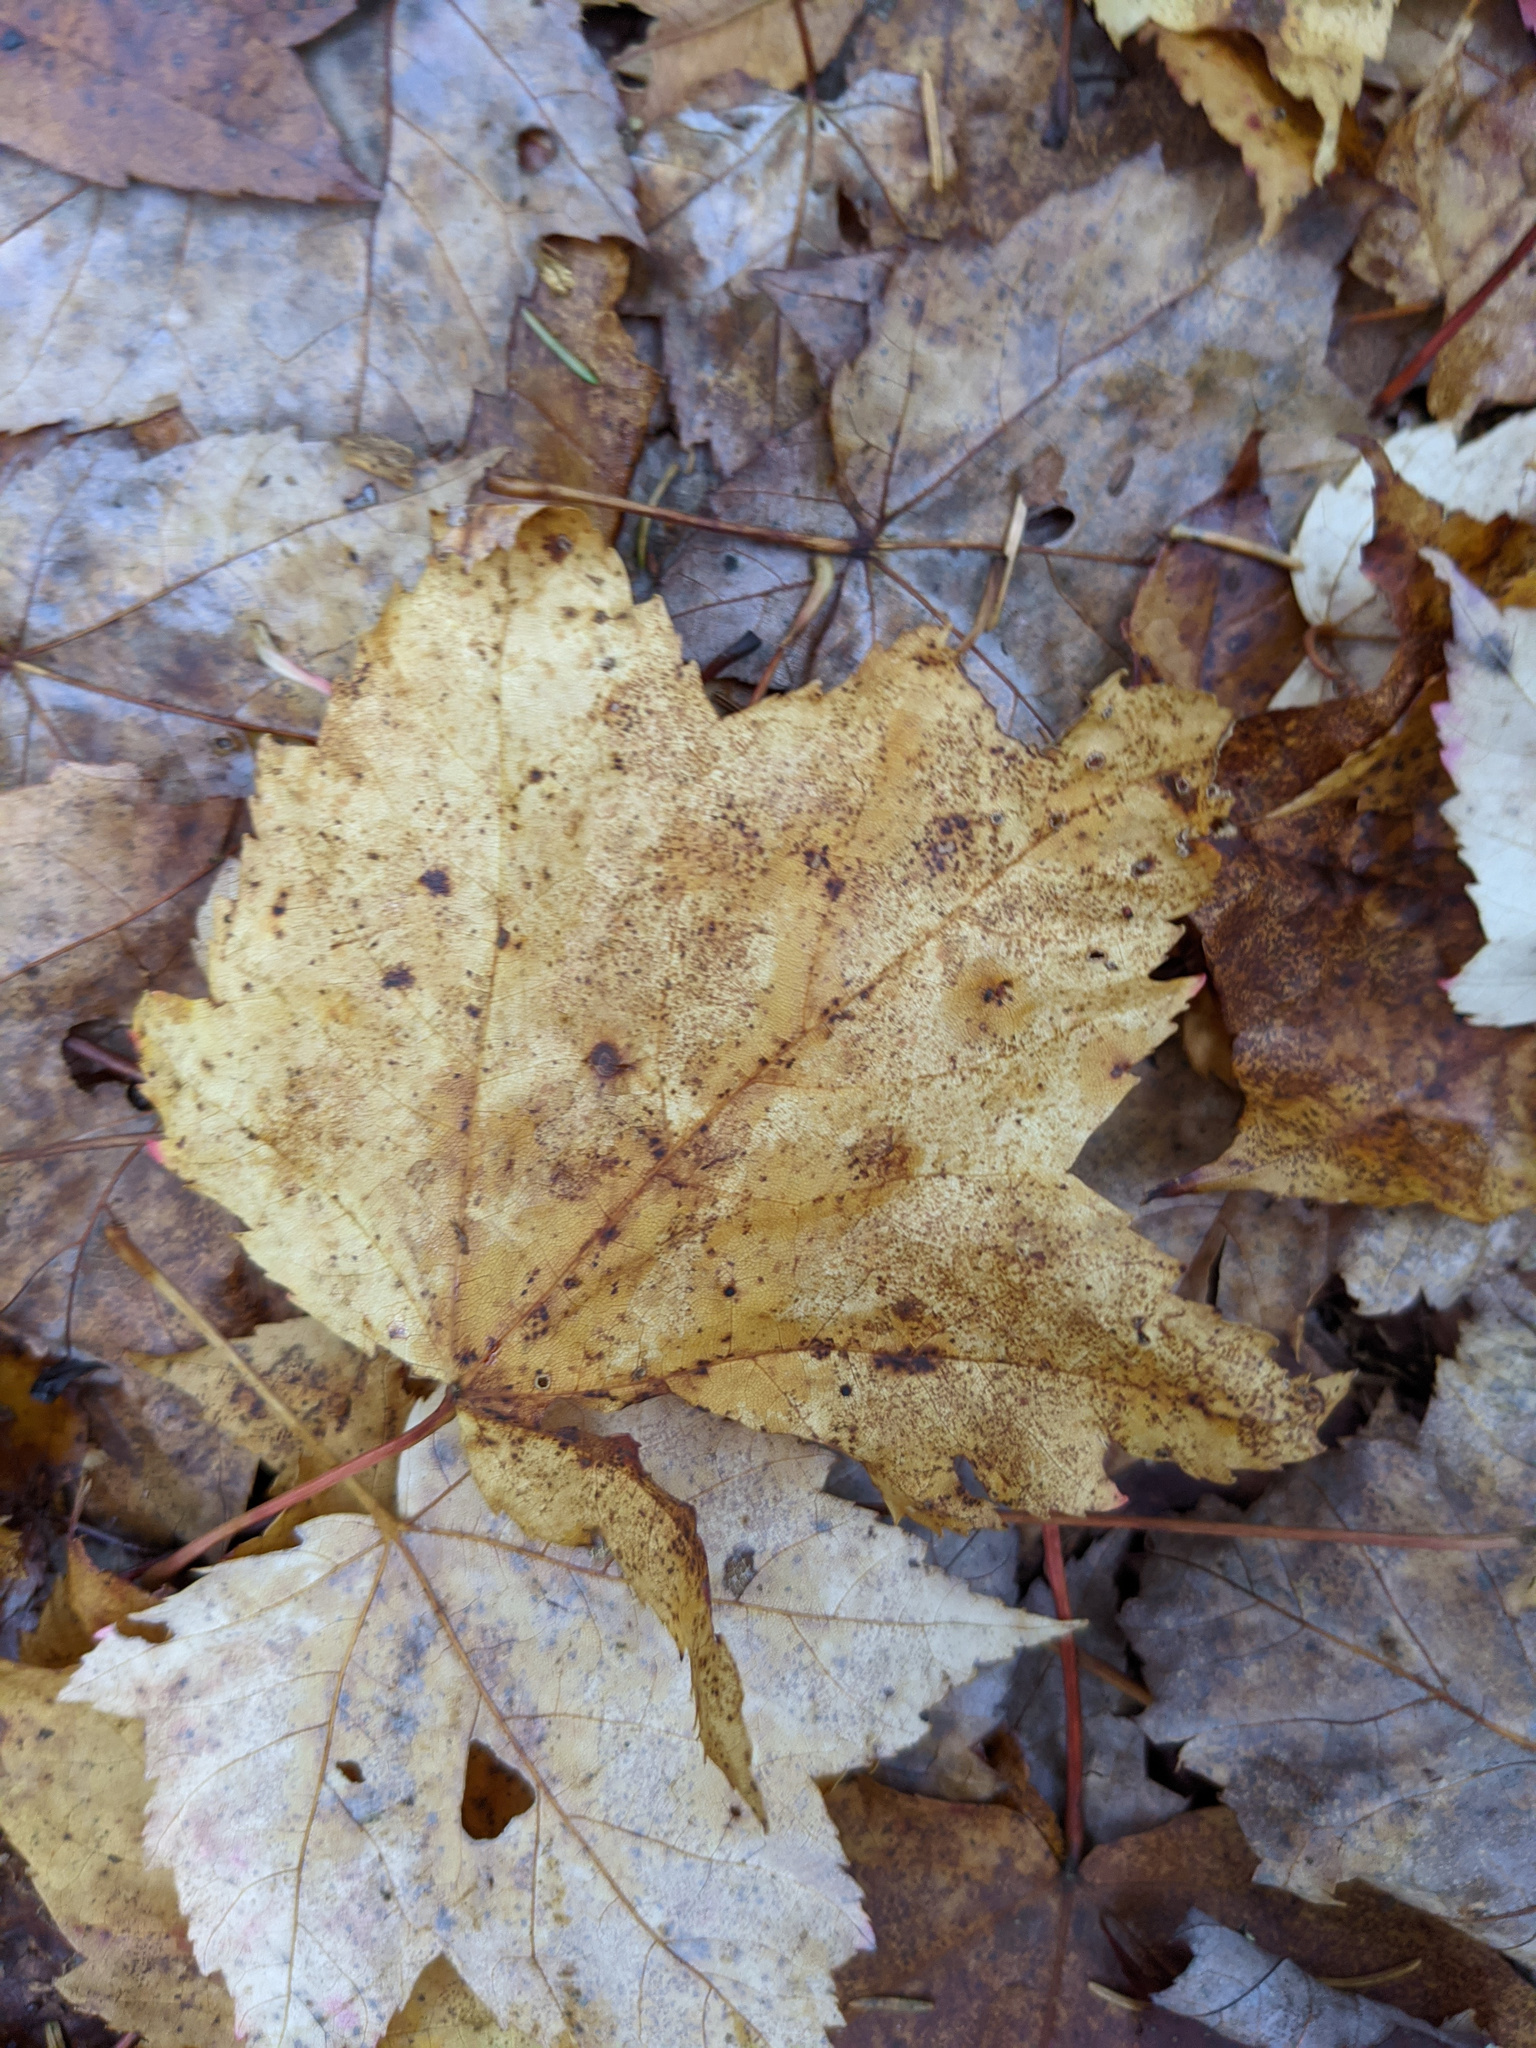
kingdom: Plantae
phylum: Tracheophyta
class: Magnoliopsida
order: Sapindales
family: Sapindaceae
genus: Acer
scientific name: Acer rubrum
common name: Red maple
